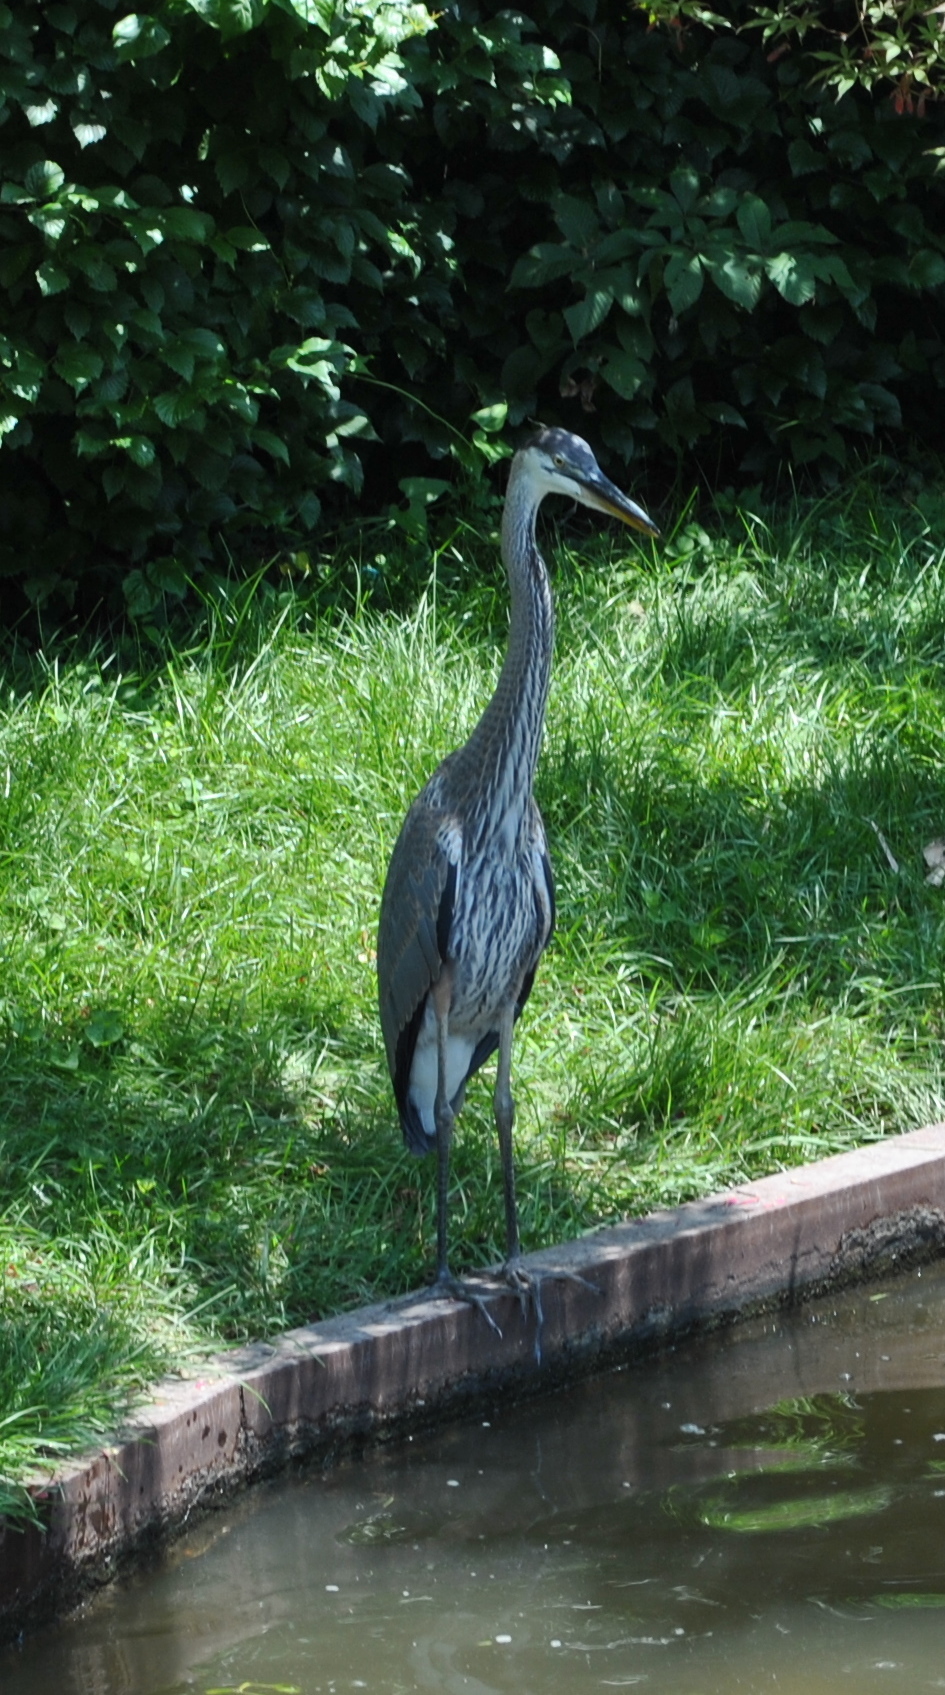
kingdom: Animalia
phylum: Chordata
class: Aves
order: Pelecaniformes
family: Ardeidae
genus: Ardea
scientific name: Ardea herodias
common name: Great blue heron
